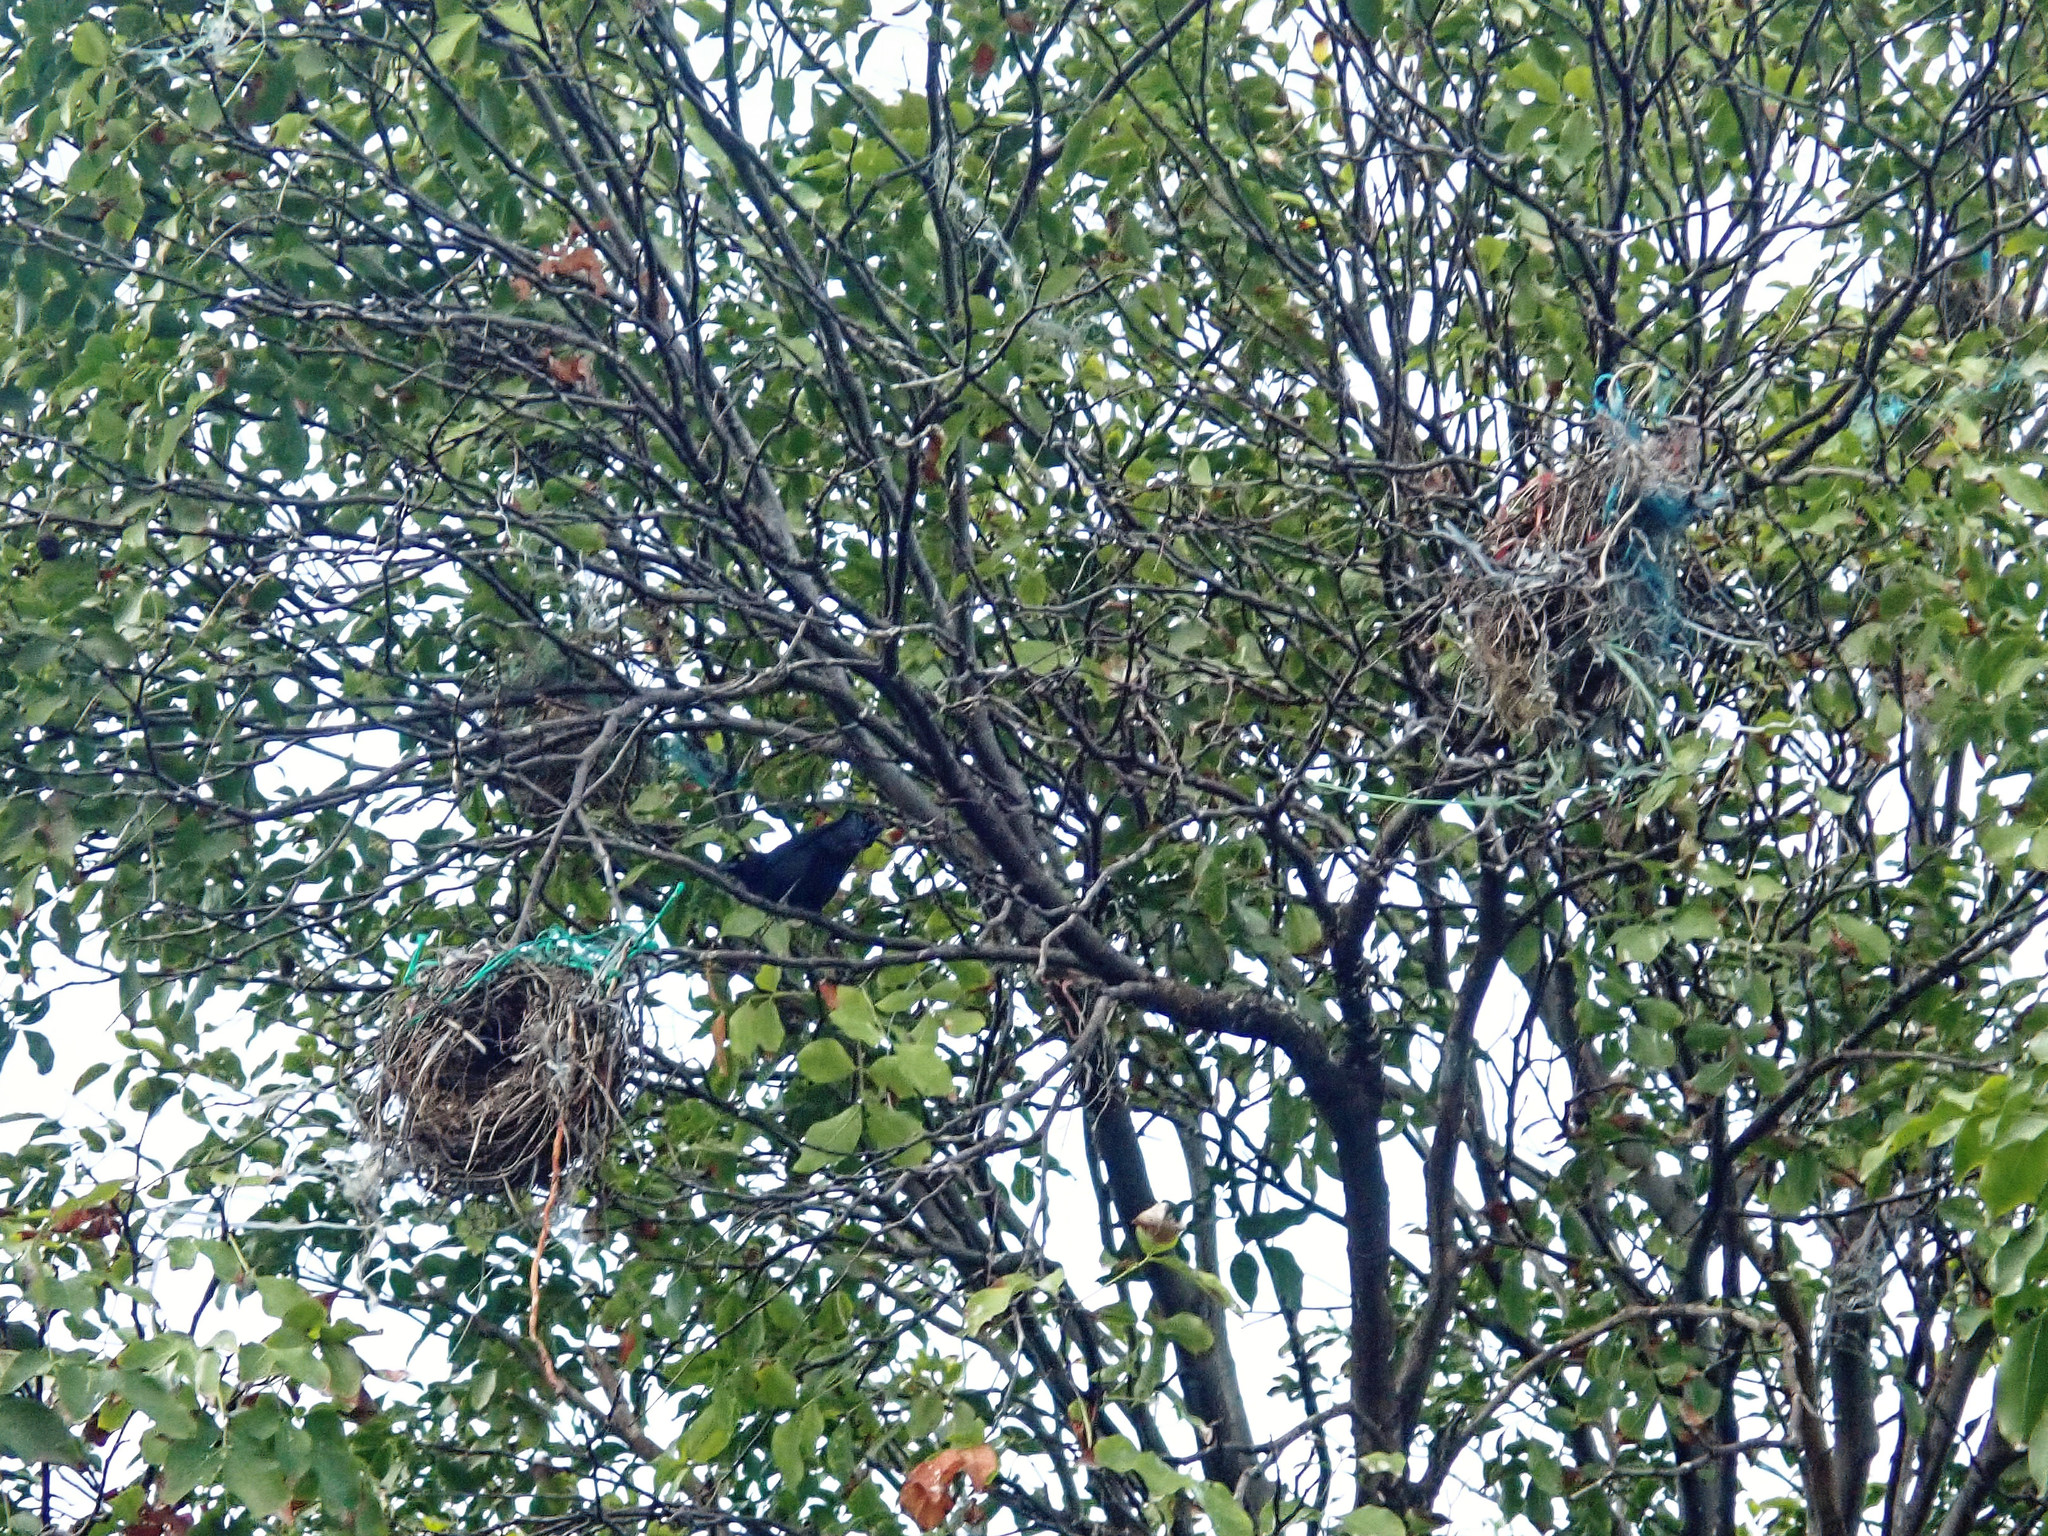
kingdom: Animalia
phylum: Chordata
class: Aves
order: Passeriformes
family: Icteridae
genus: Quiscalus
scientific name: Quiscalus lugubris
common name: Carib grackle
